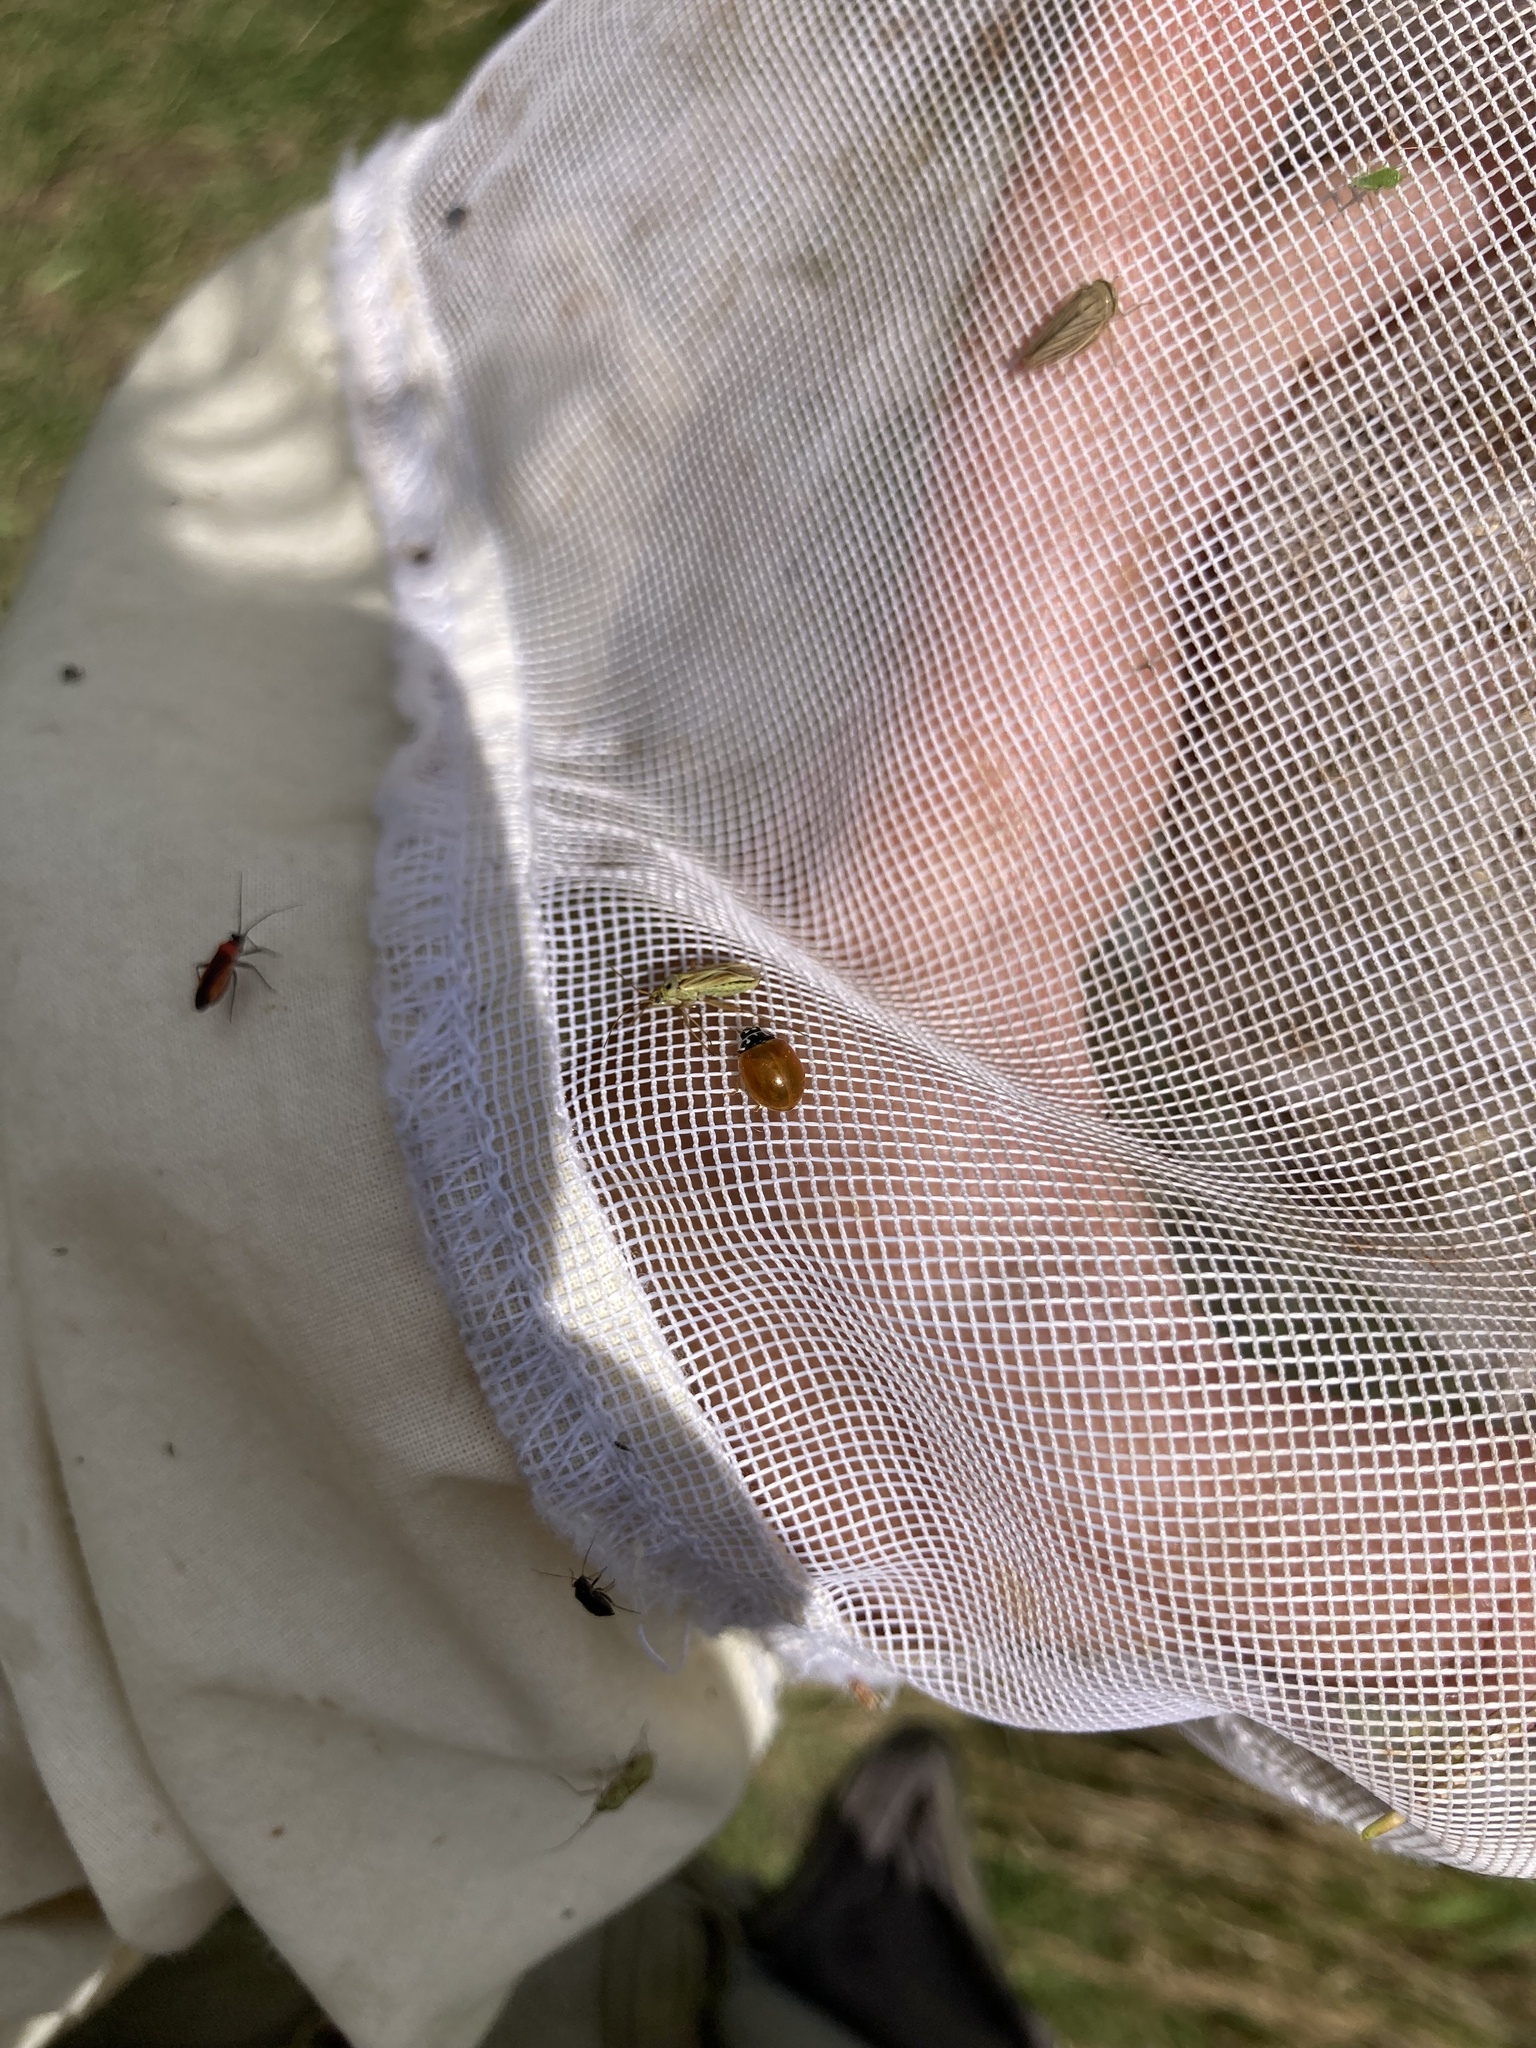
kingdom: Animalia
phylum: Arthropoda
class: Insecta
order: Coleoptera
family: Coccinellidae
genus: Cycloneda
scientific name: Cycloneda munda
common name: Polished lady beetle
